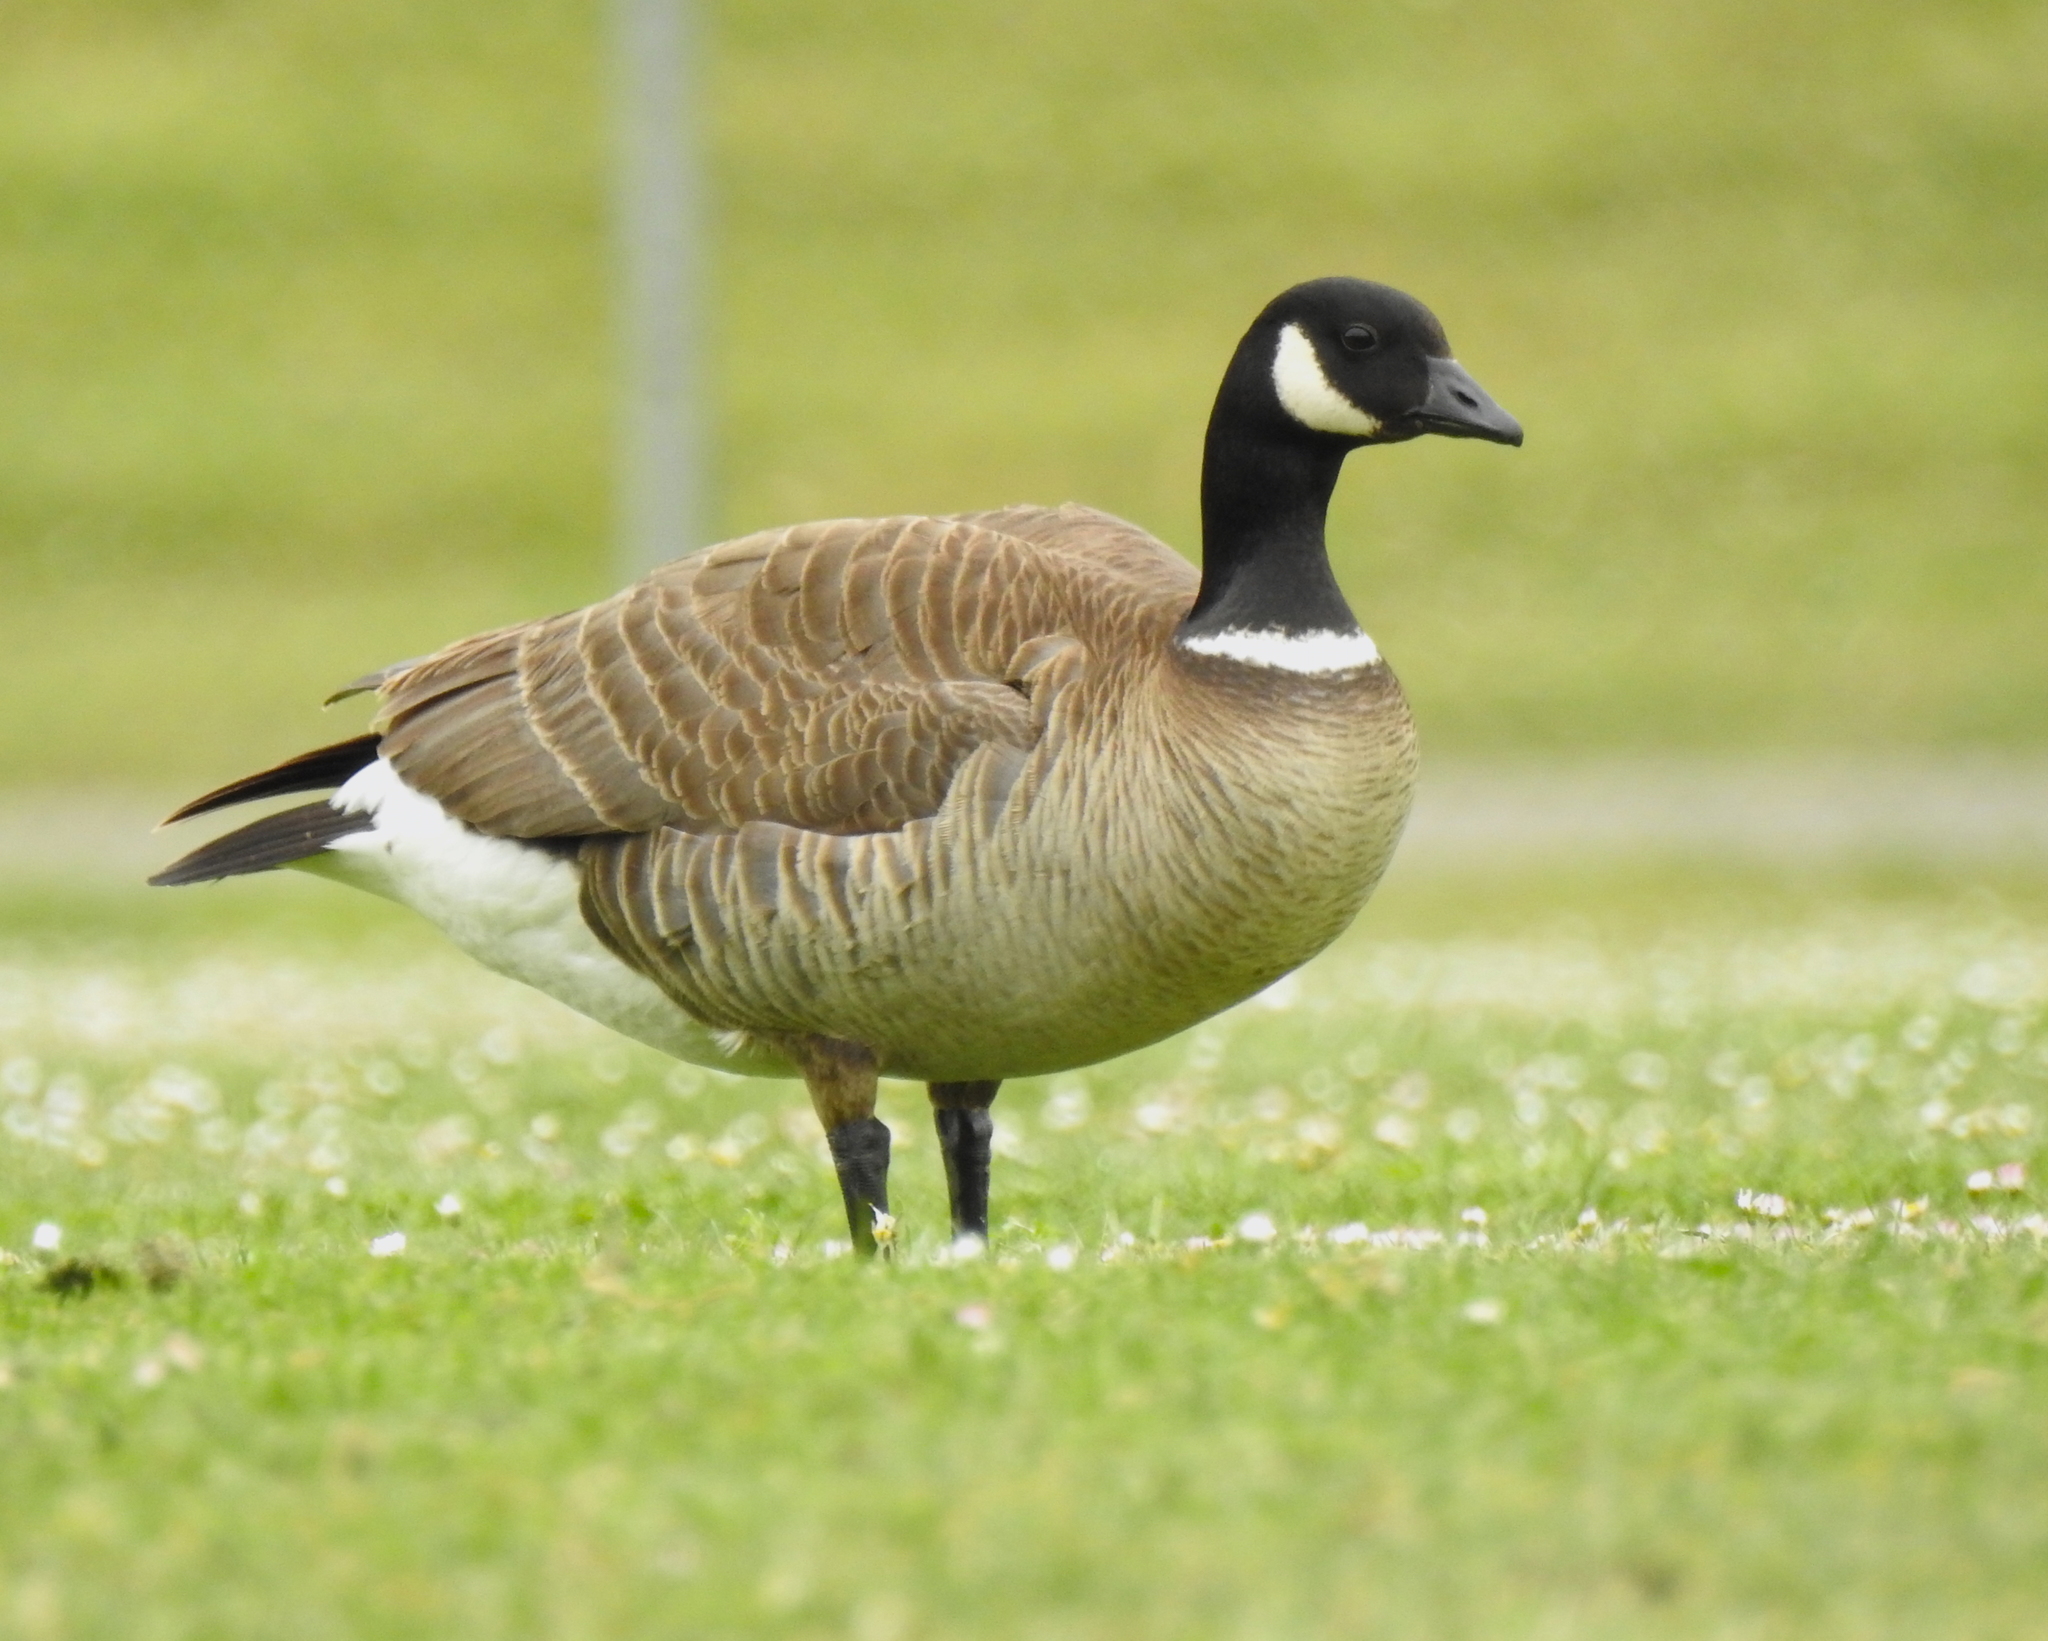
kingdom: Animalia
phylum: Chordata
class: Aves
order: Anseriformes
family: Anatidae
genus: Branta
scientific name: Branta hutchinsii
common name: Cackling goose
